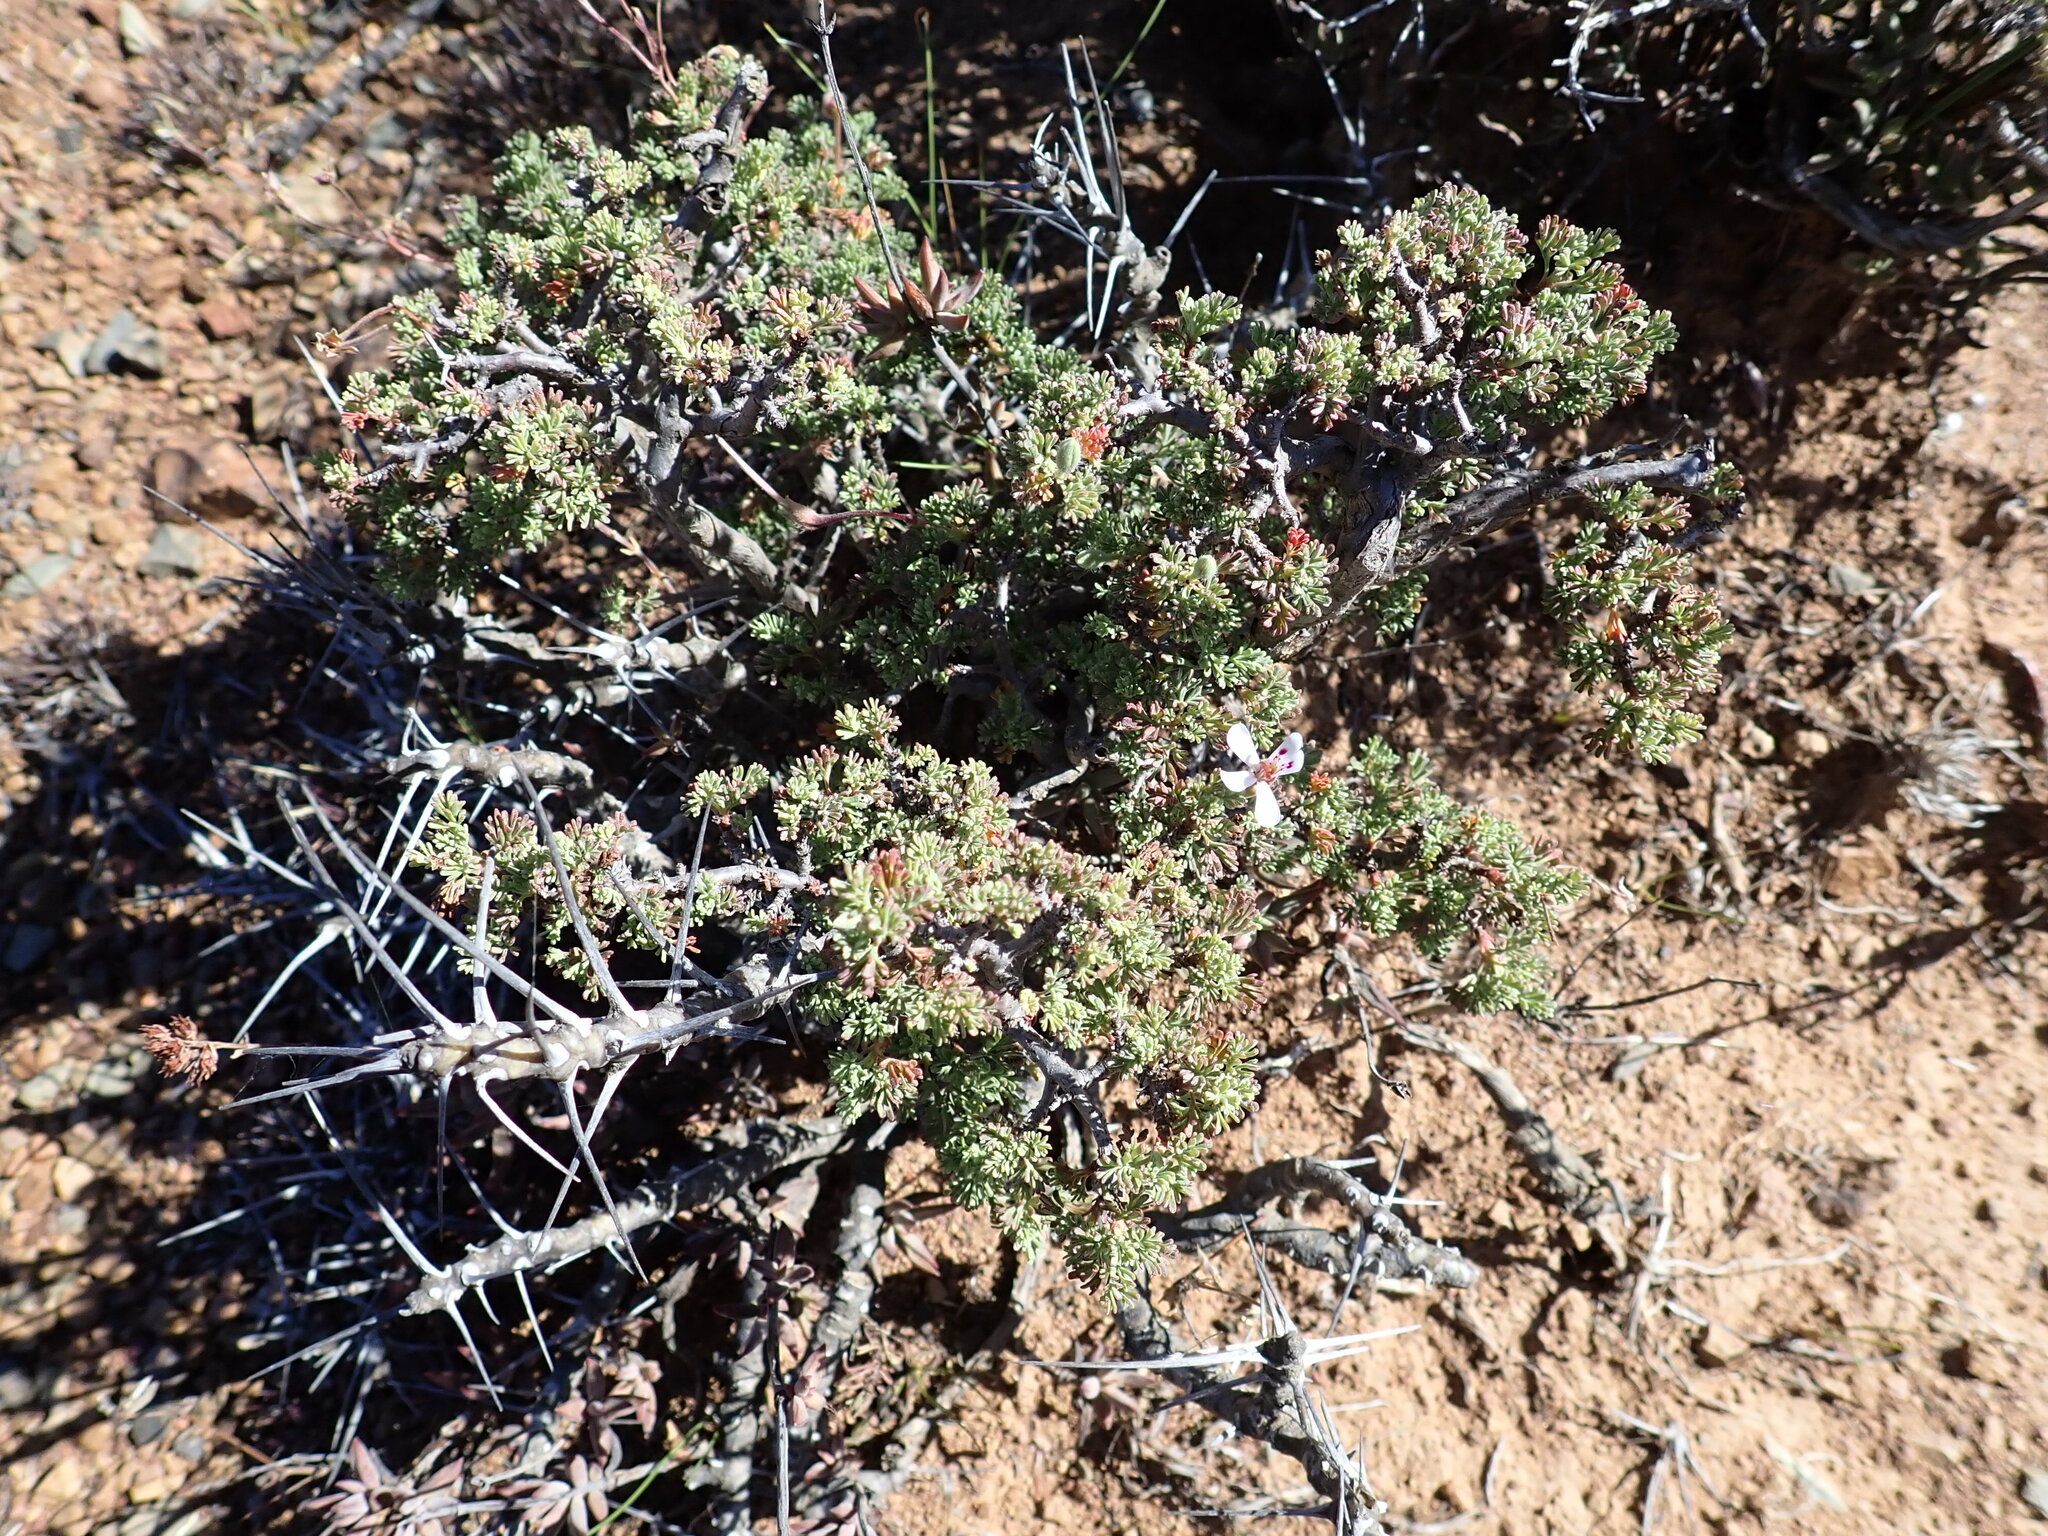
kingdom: Plantae
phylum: Tracheophyta
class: Magnoliopsida
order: Geraniales
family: Geraniaceae
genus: Pelargonium
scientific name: Pelargonium abrotanifolium
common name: Southernwood geranium
